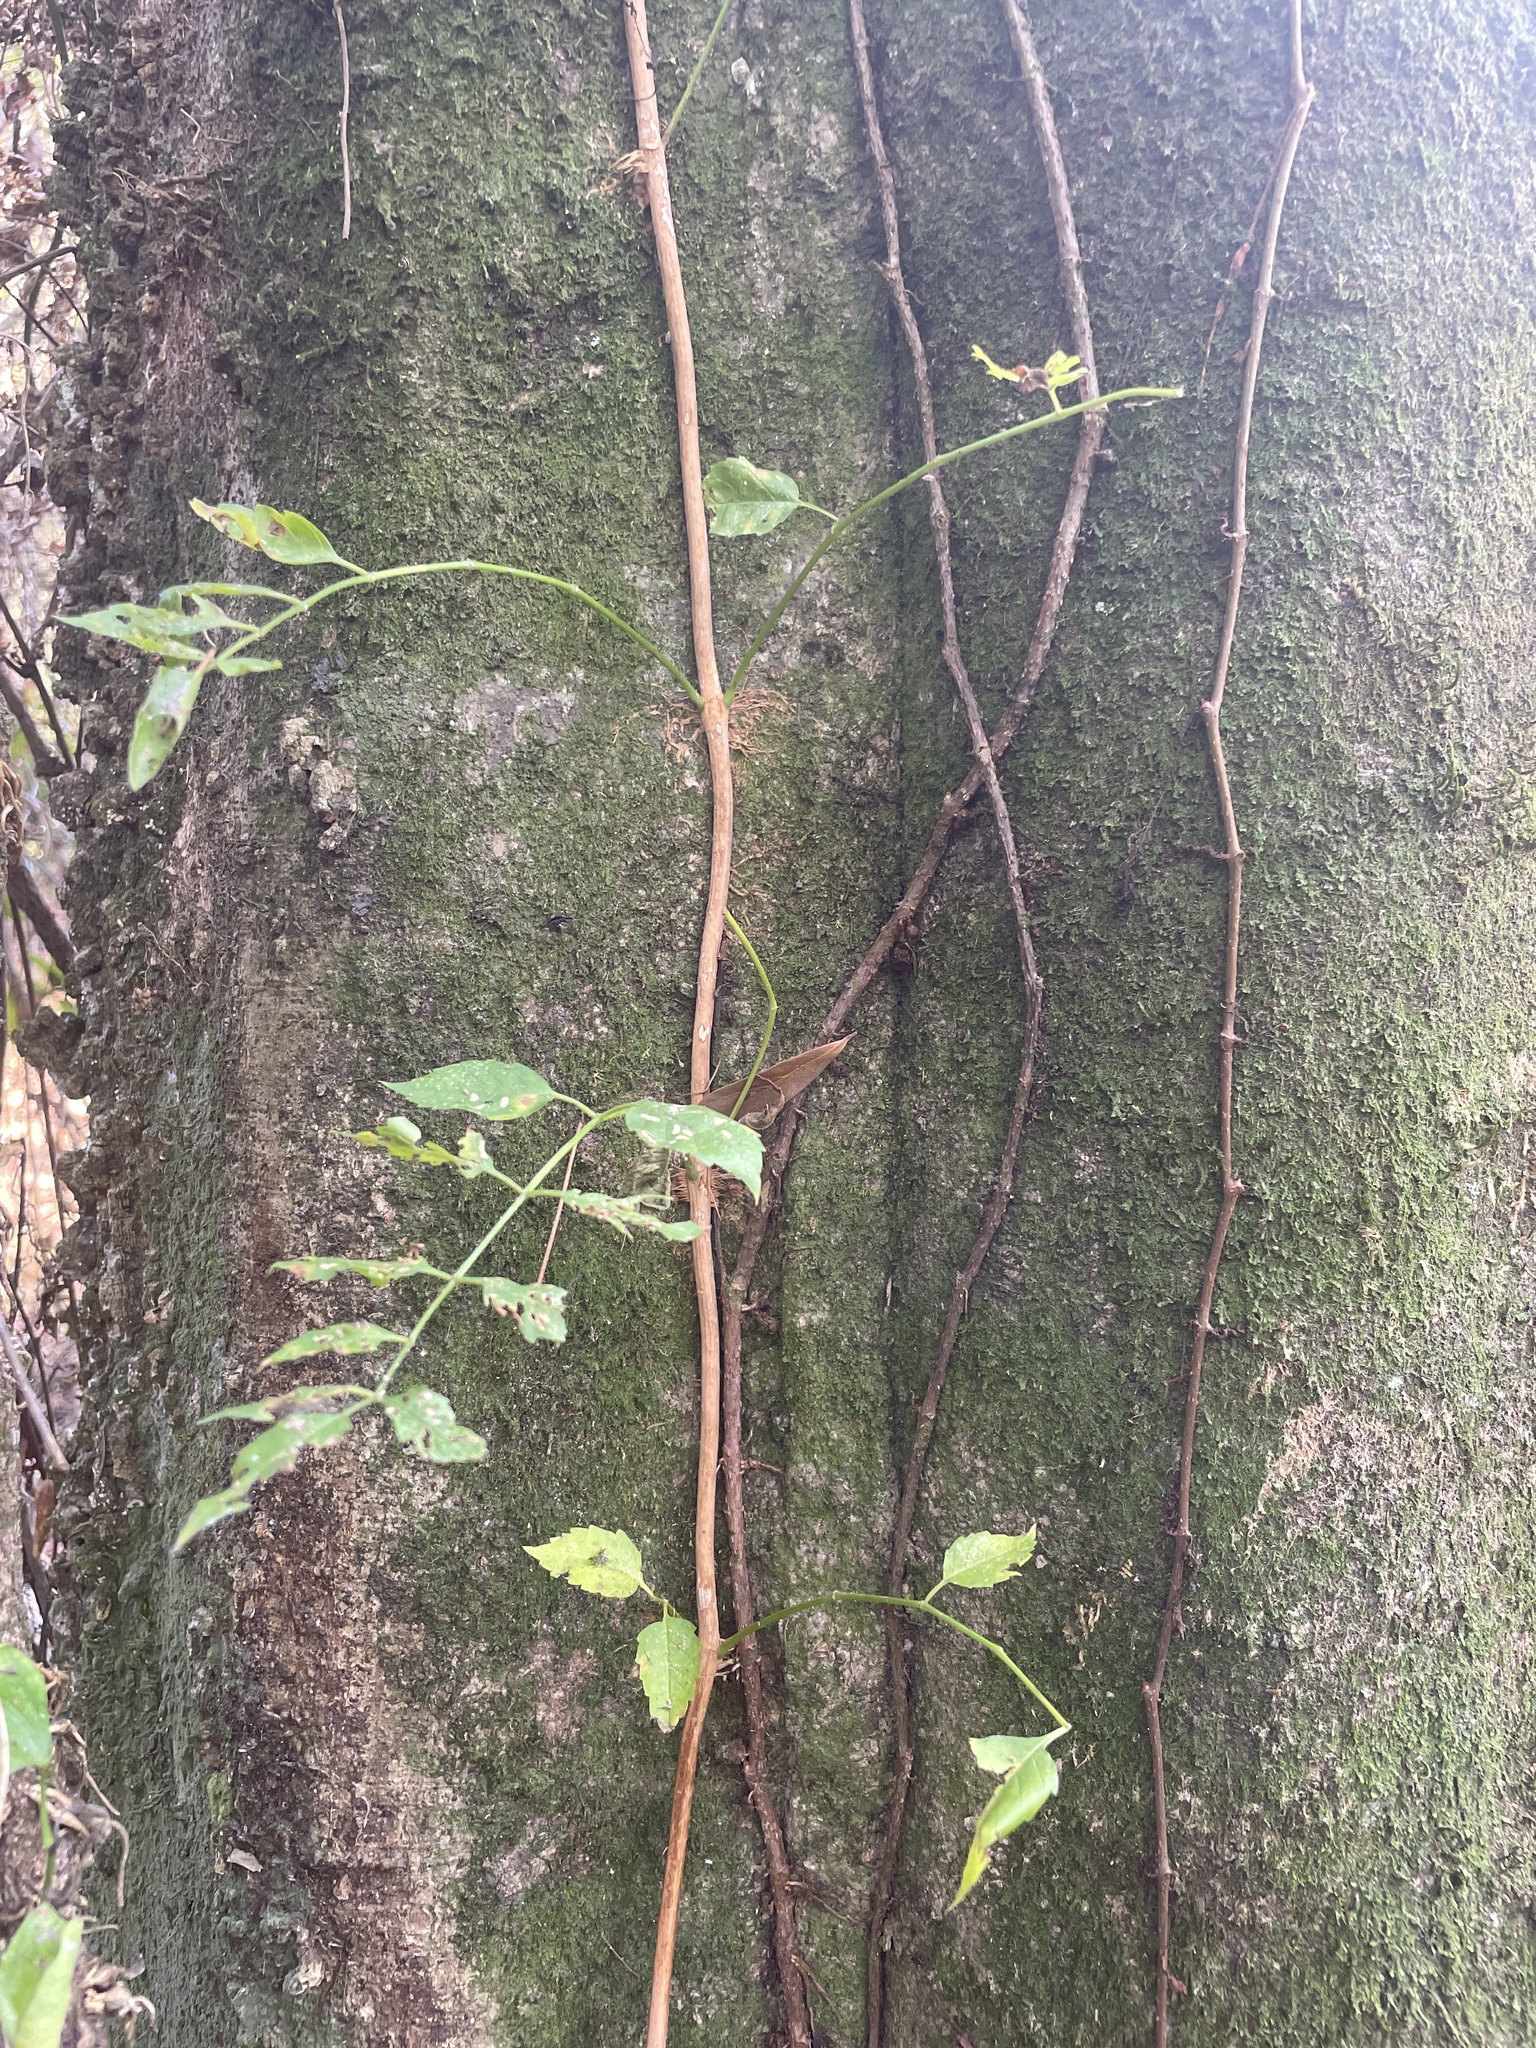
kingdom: Plantae
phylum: Tracheophyta
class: Magnoliopsida
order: Lamiales
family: Bignoniaceae
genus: Campsis
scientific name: Campsis radicans
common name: Trumpet-creeper
